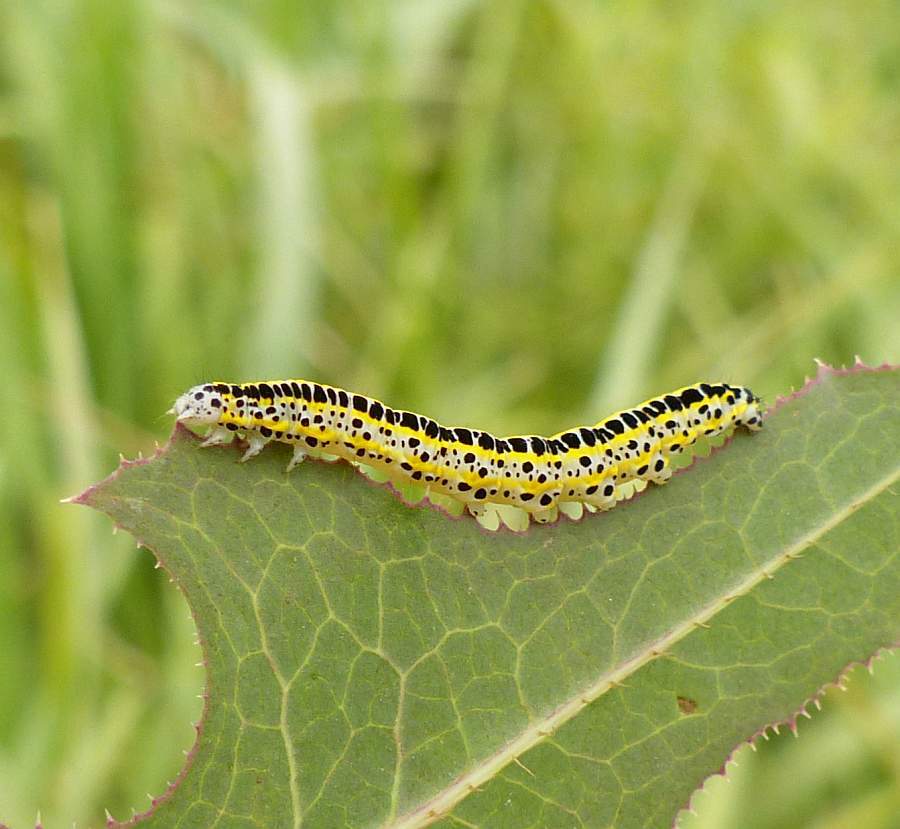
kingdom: Animalia
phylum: Arthropoda
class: Insecta
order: Lepidoptera
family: Noctuidae
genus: Calophasia
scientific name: Calophasia lunula
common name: Toadflax brocade
